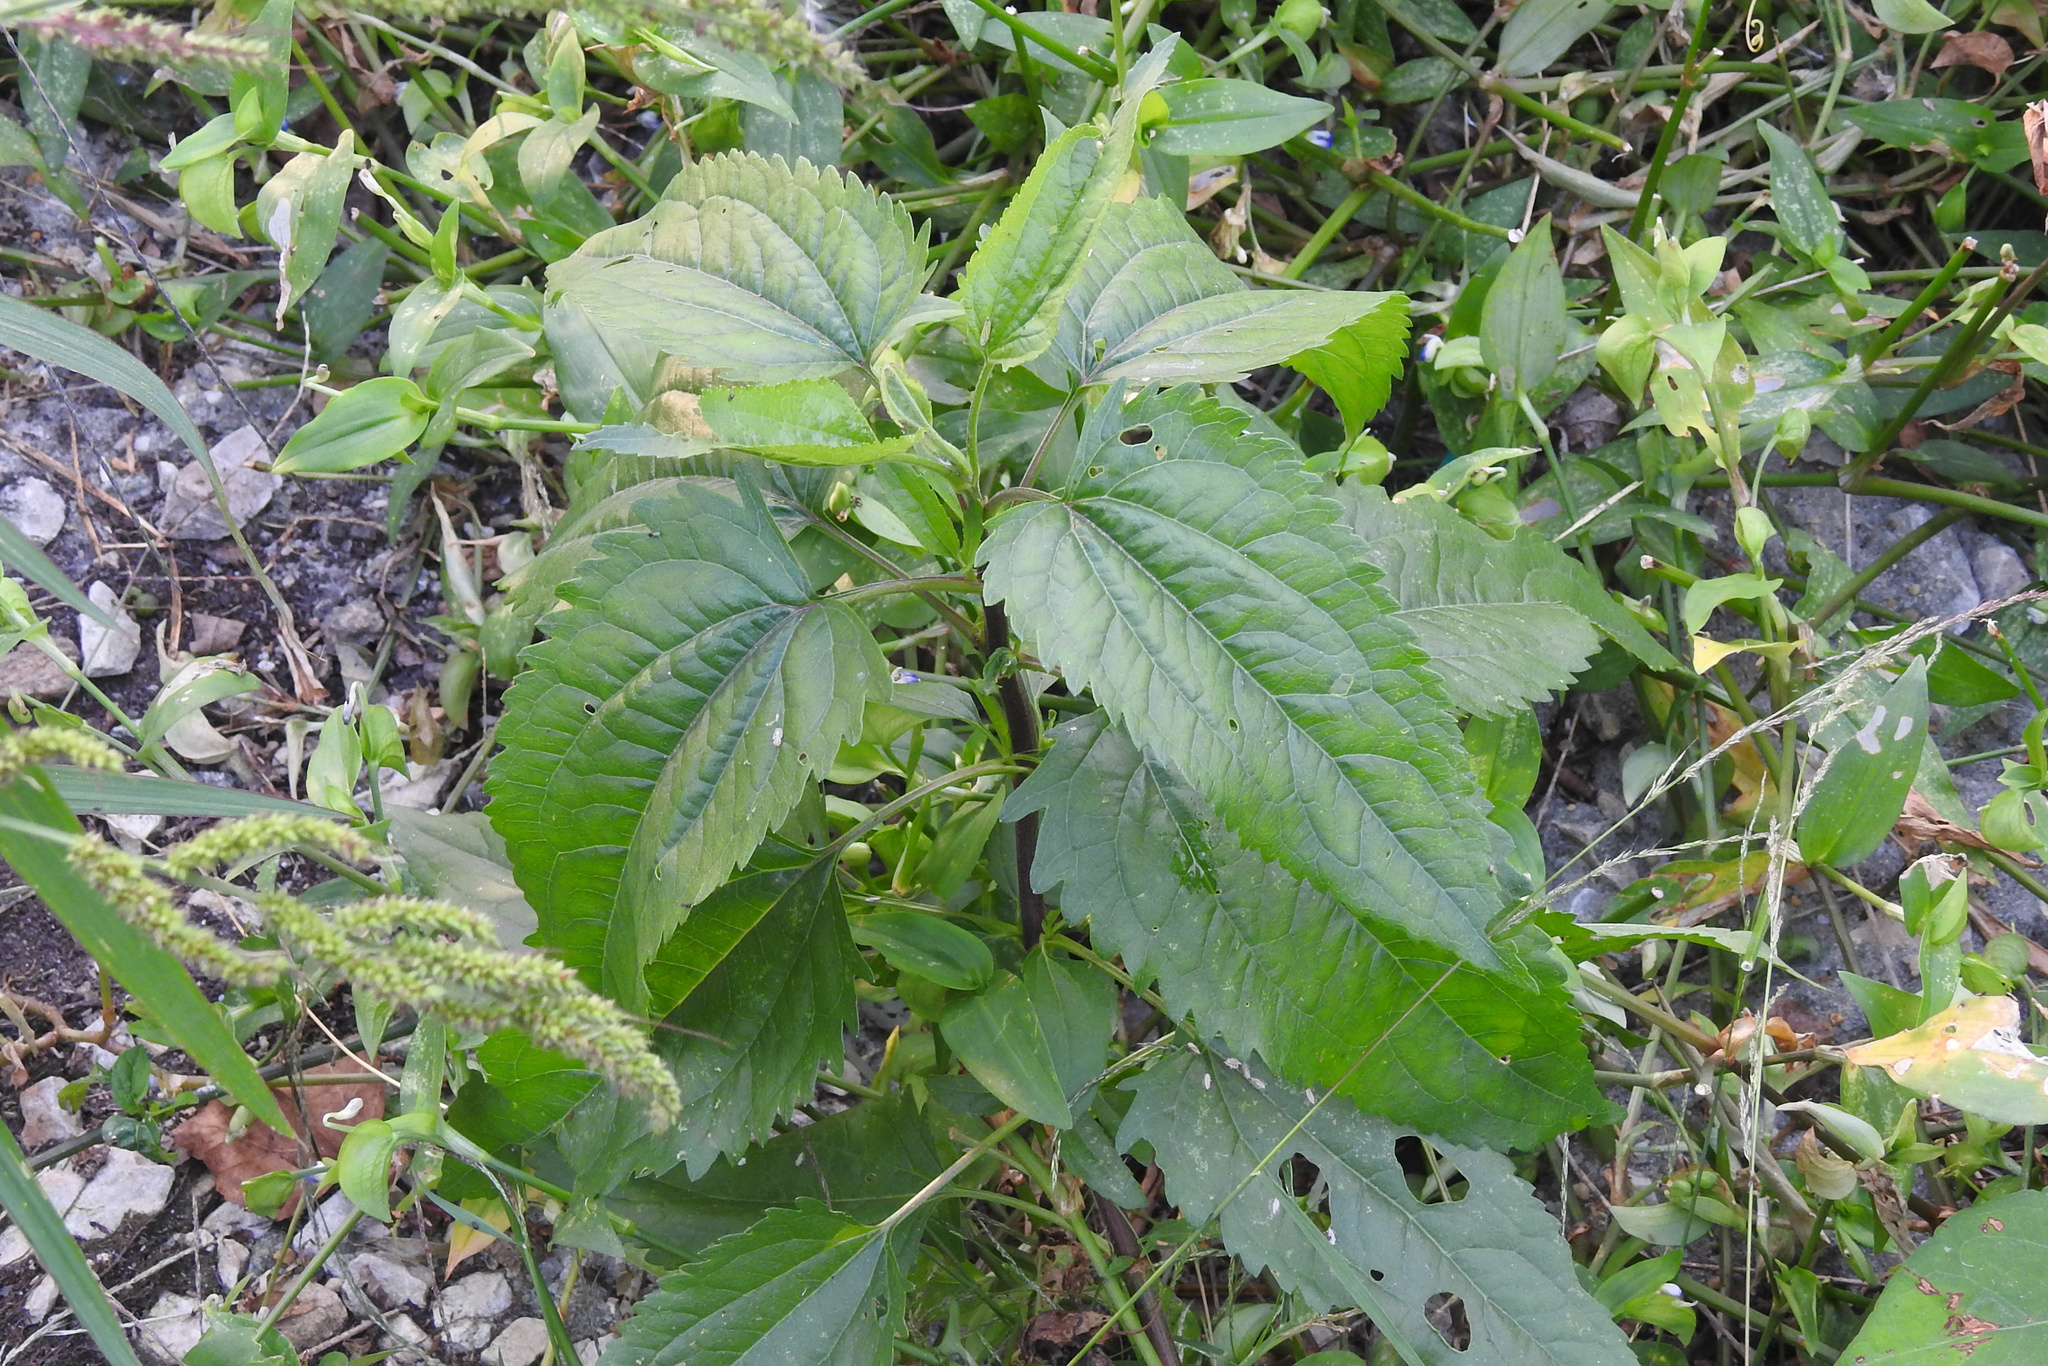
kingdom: Plantae
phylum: Tracheophyta
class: Magnoliopsida
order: Asterales
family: Asteraceae
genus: Eupatorium
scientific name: Eupatorium serotinum
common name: Late boneset
